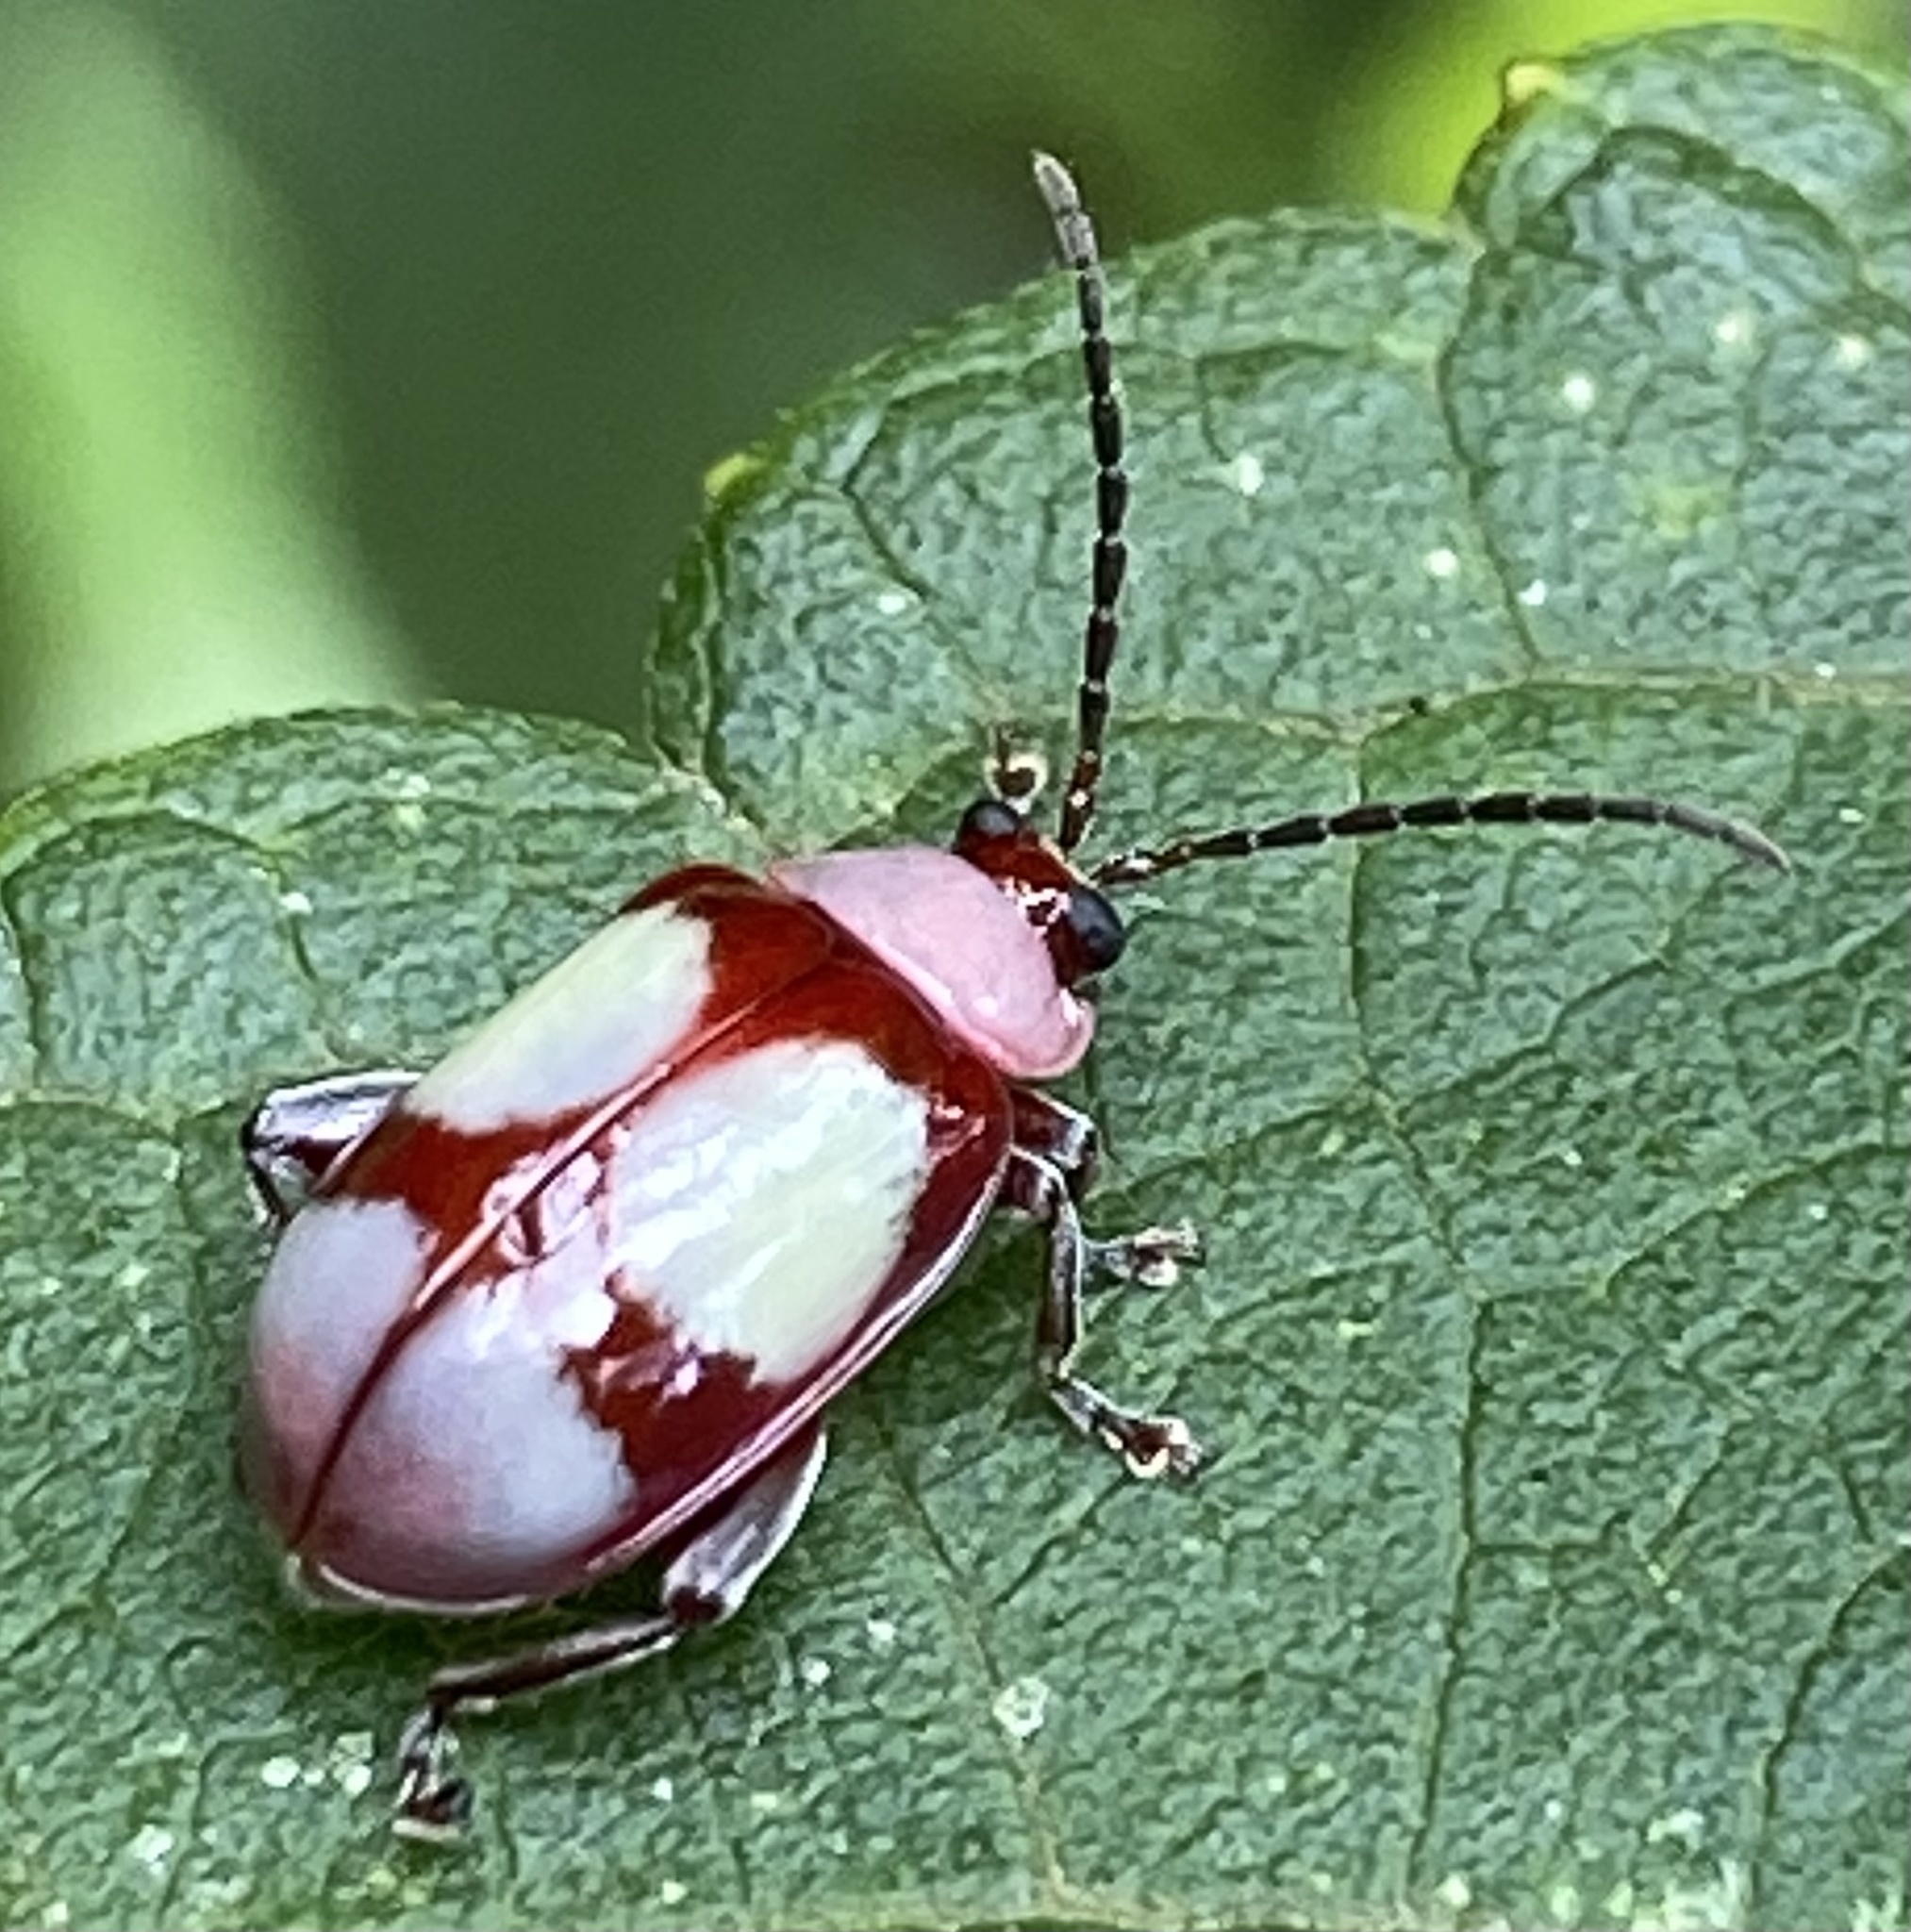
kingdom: Animalia
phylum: Arthropoda
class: Insecta
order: Coleoptera
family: Chrysomelidae
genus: Omophoita
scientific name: Omophoita
